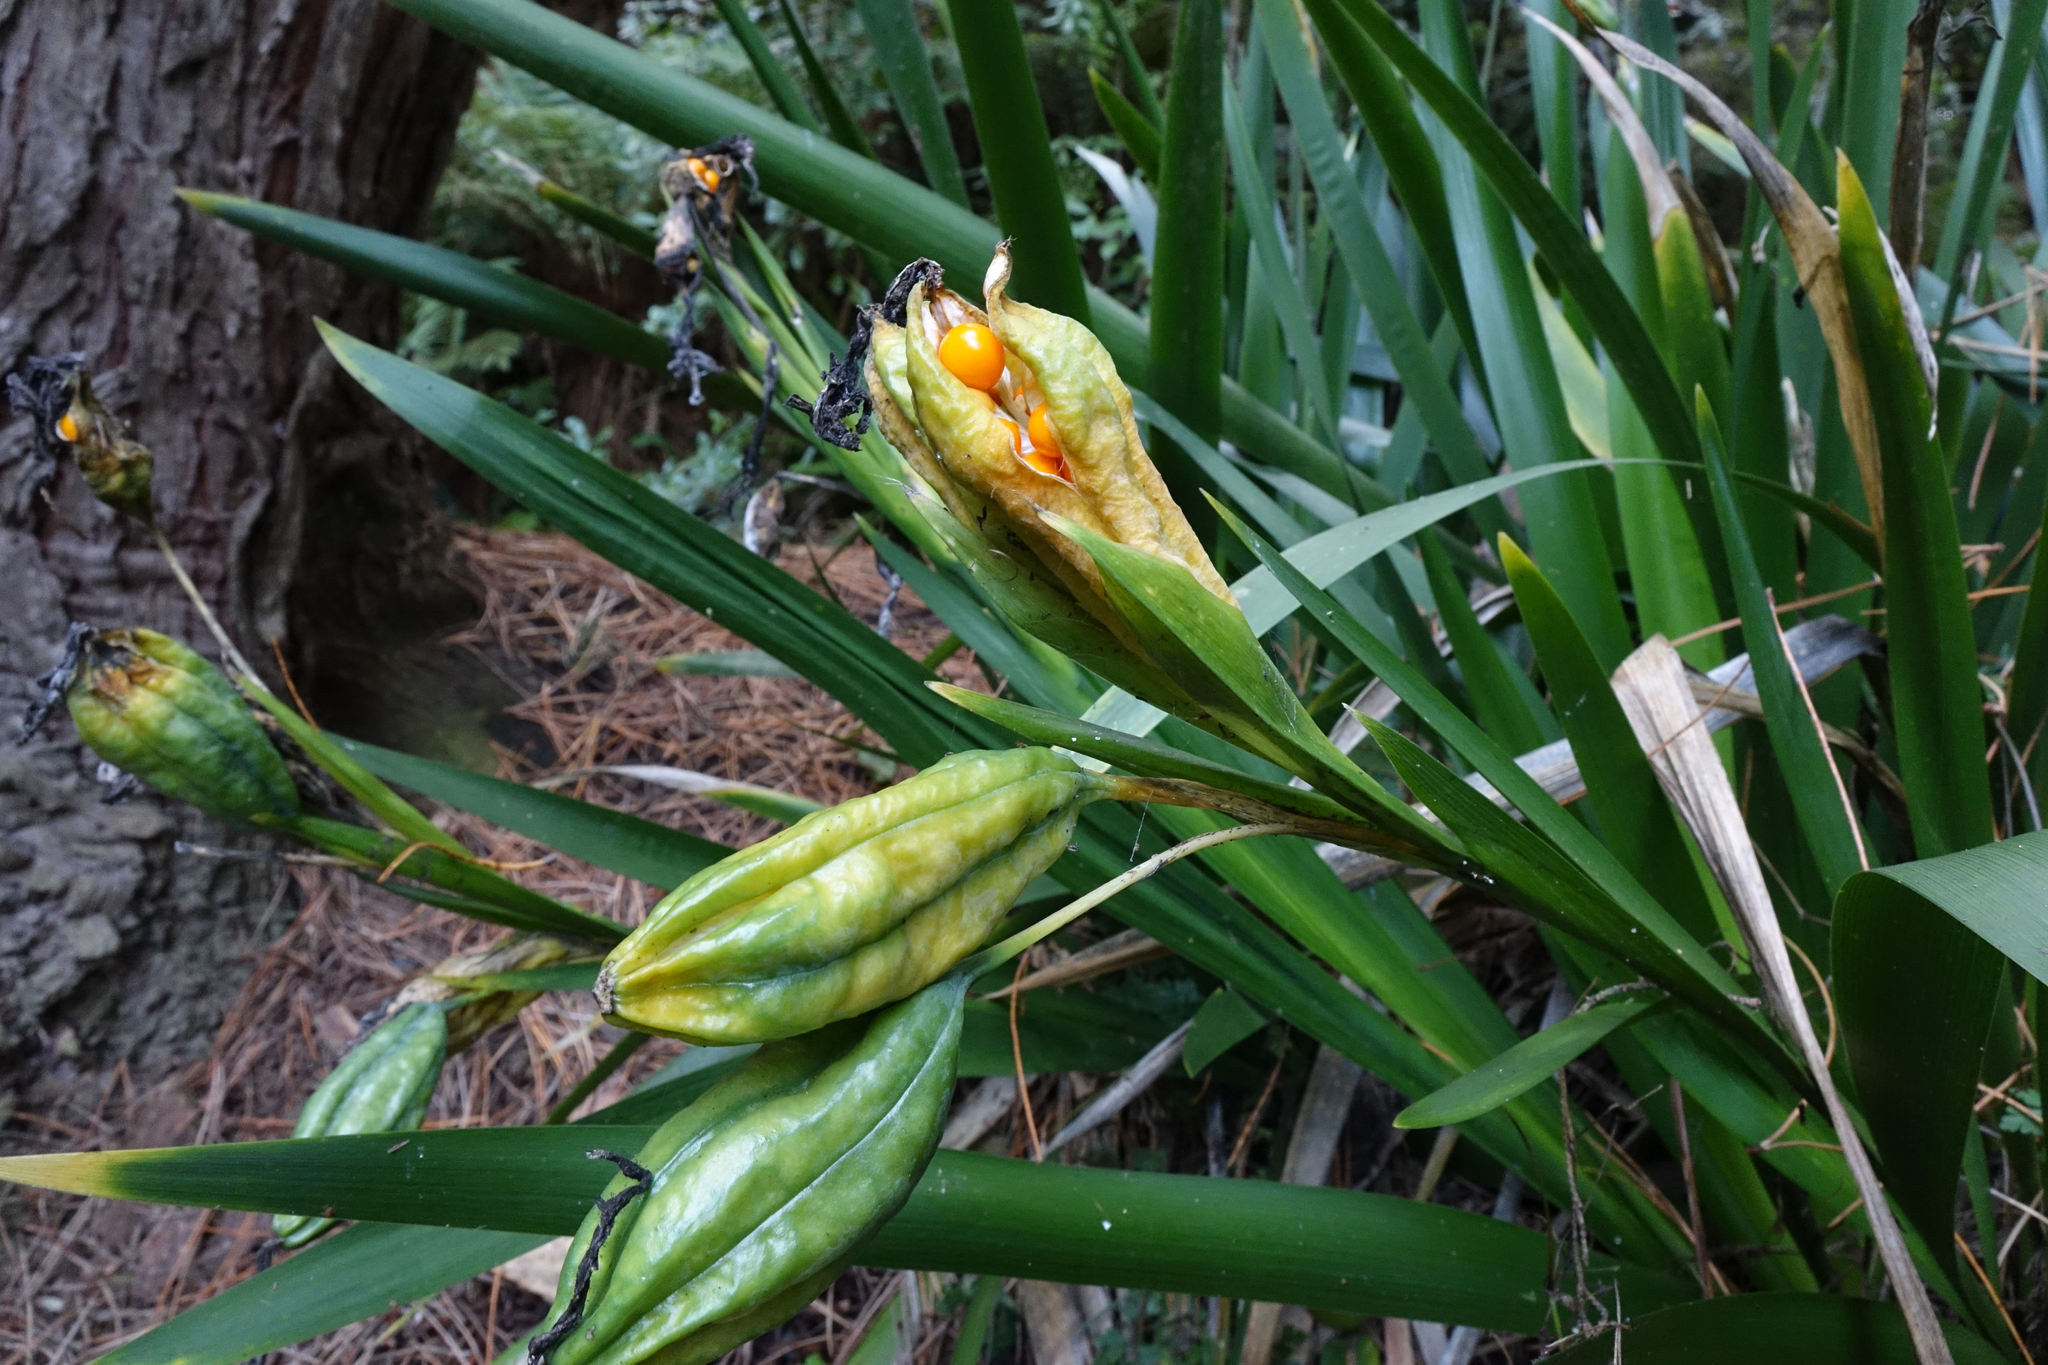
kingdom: Plantae
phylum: Tracheophyta
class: Liliopsida
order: Asparagales
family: Iridaceae
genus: Iris
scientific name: Iris foetidissima
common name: Stinking iris
